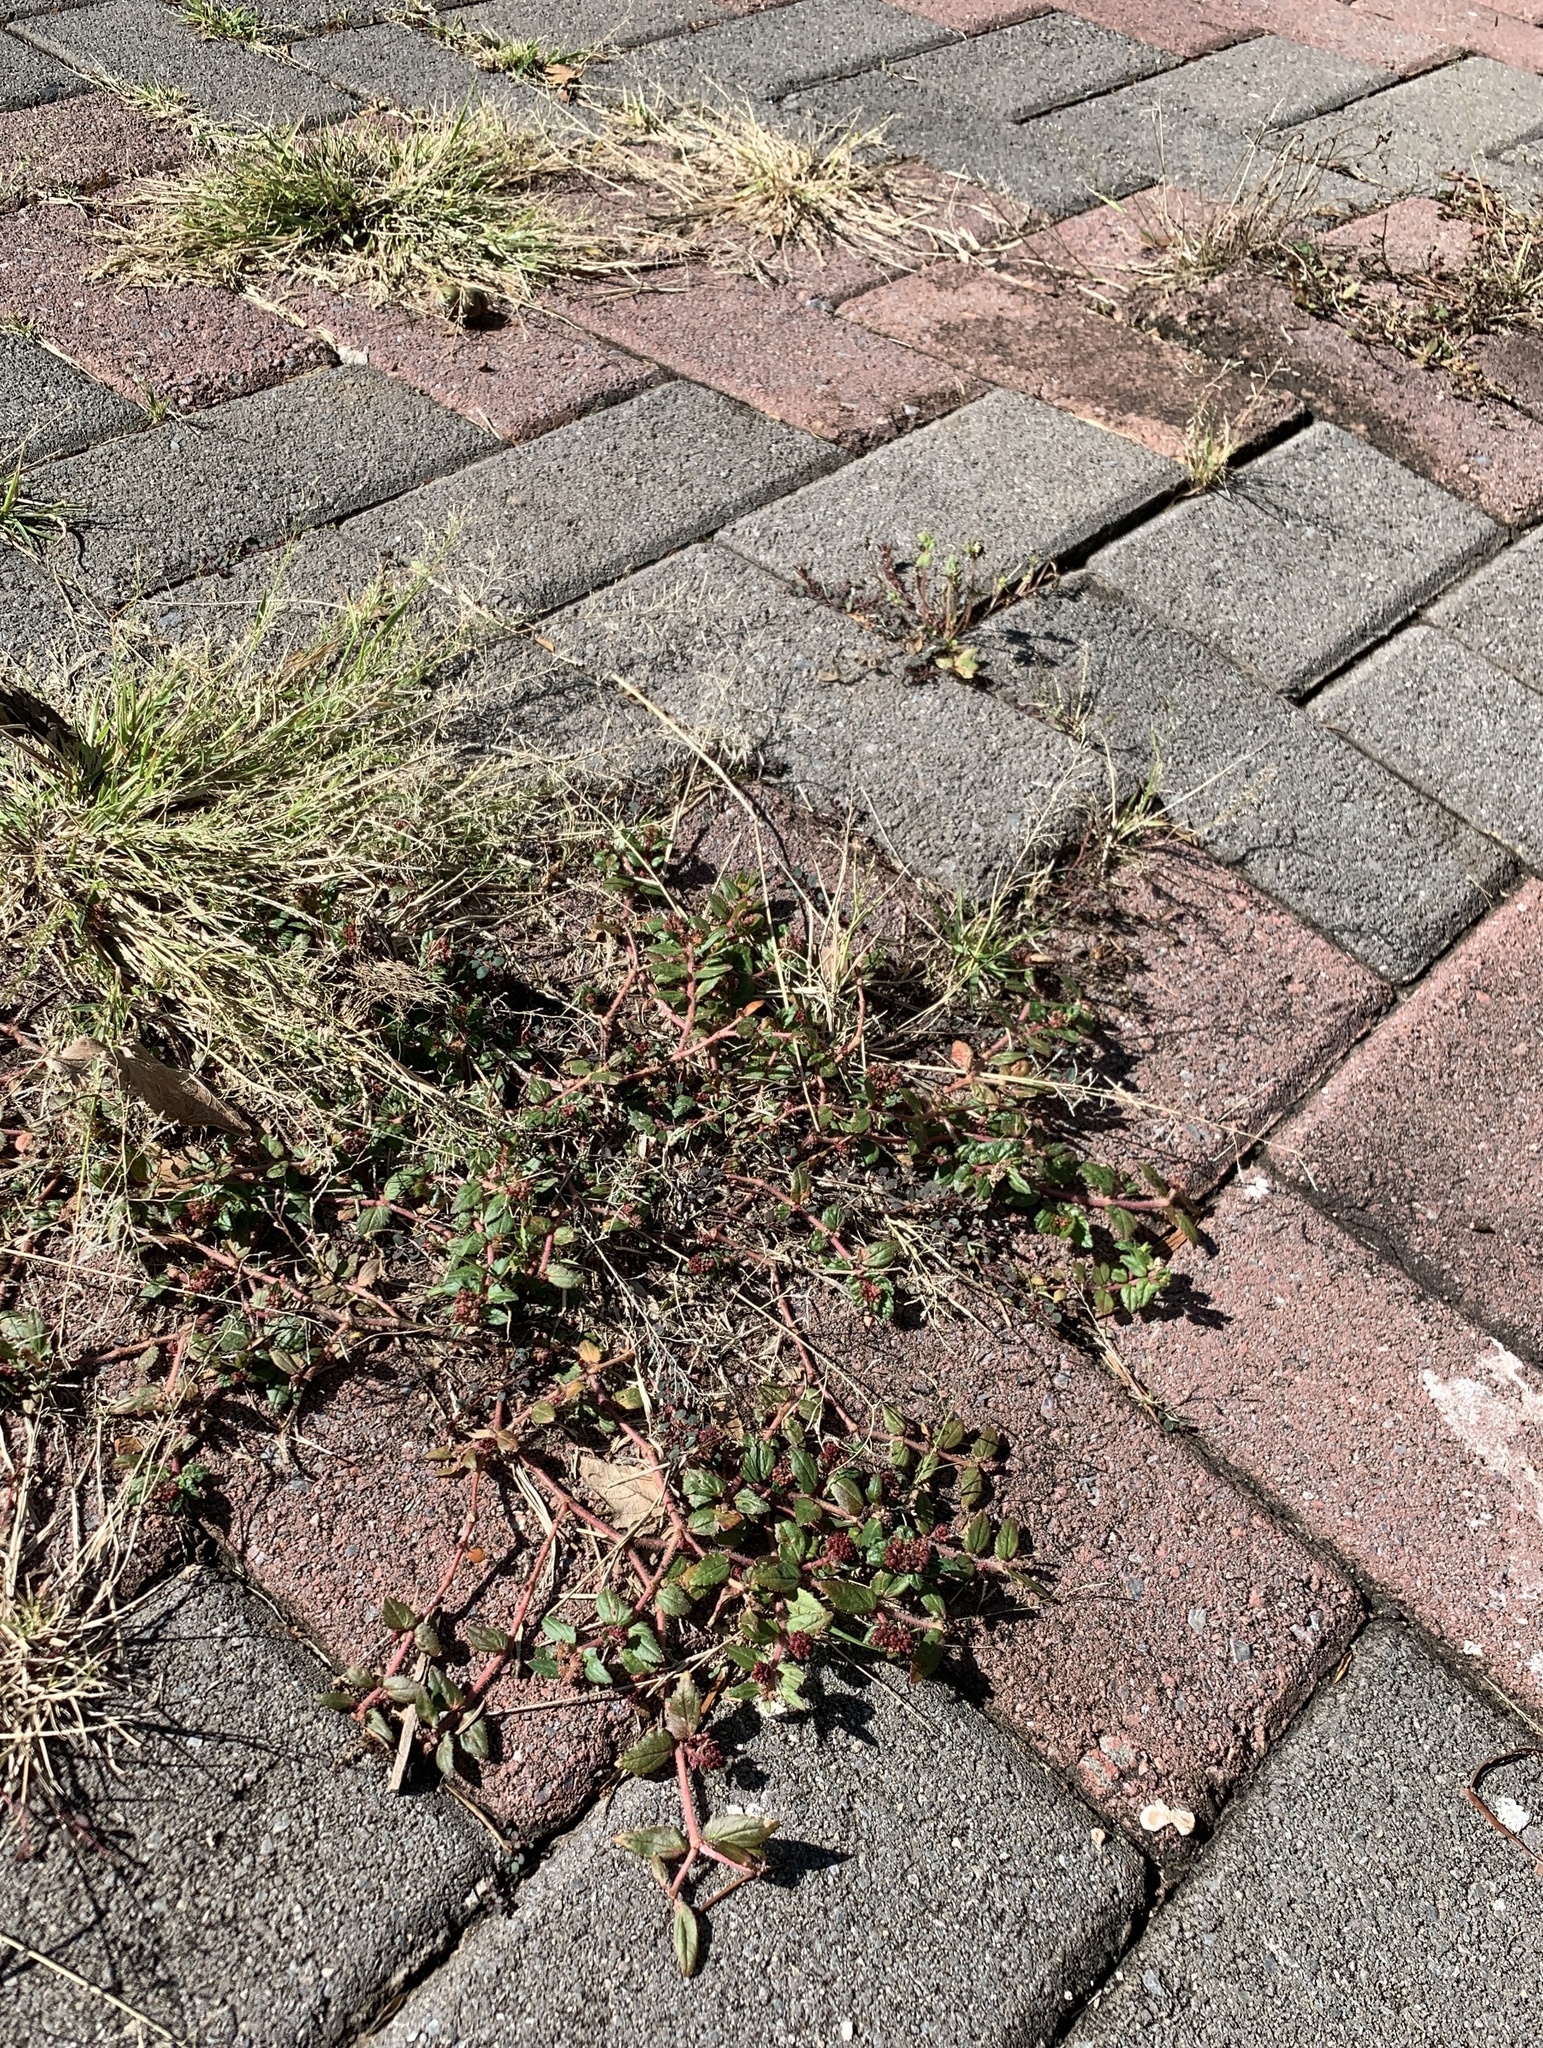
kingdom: Plantae
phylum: Tracheophyta
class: Magnoliopsida
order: Malpighiales
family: Euphorbiaceae
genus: Euphorbia
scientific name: Euphorbia hirta
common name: Pillpod sandmat
